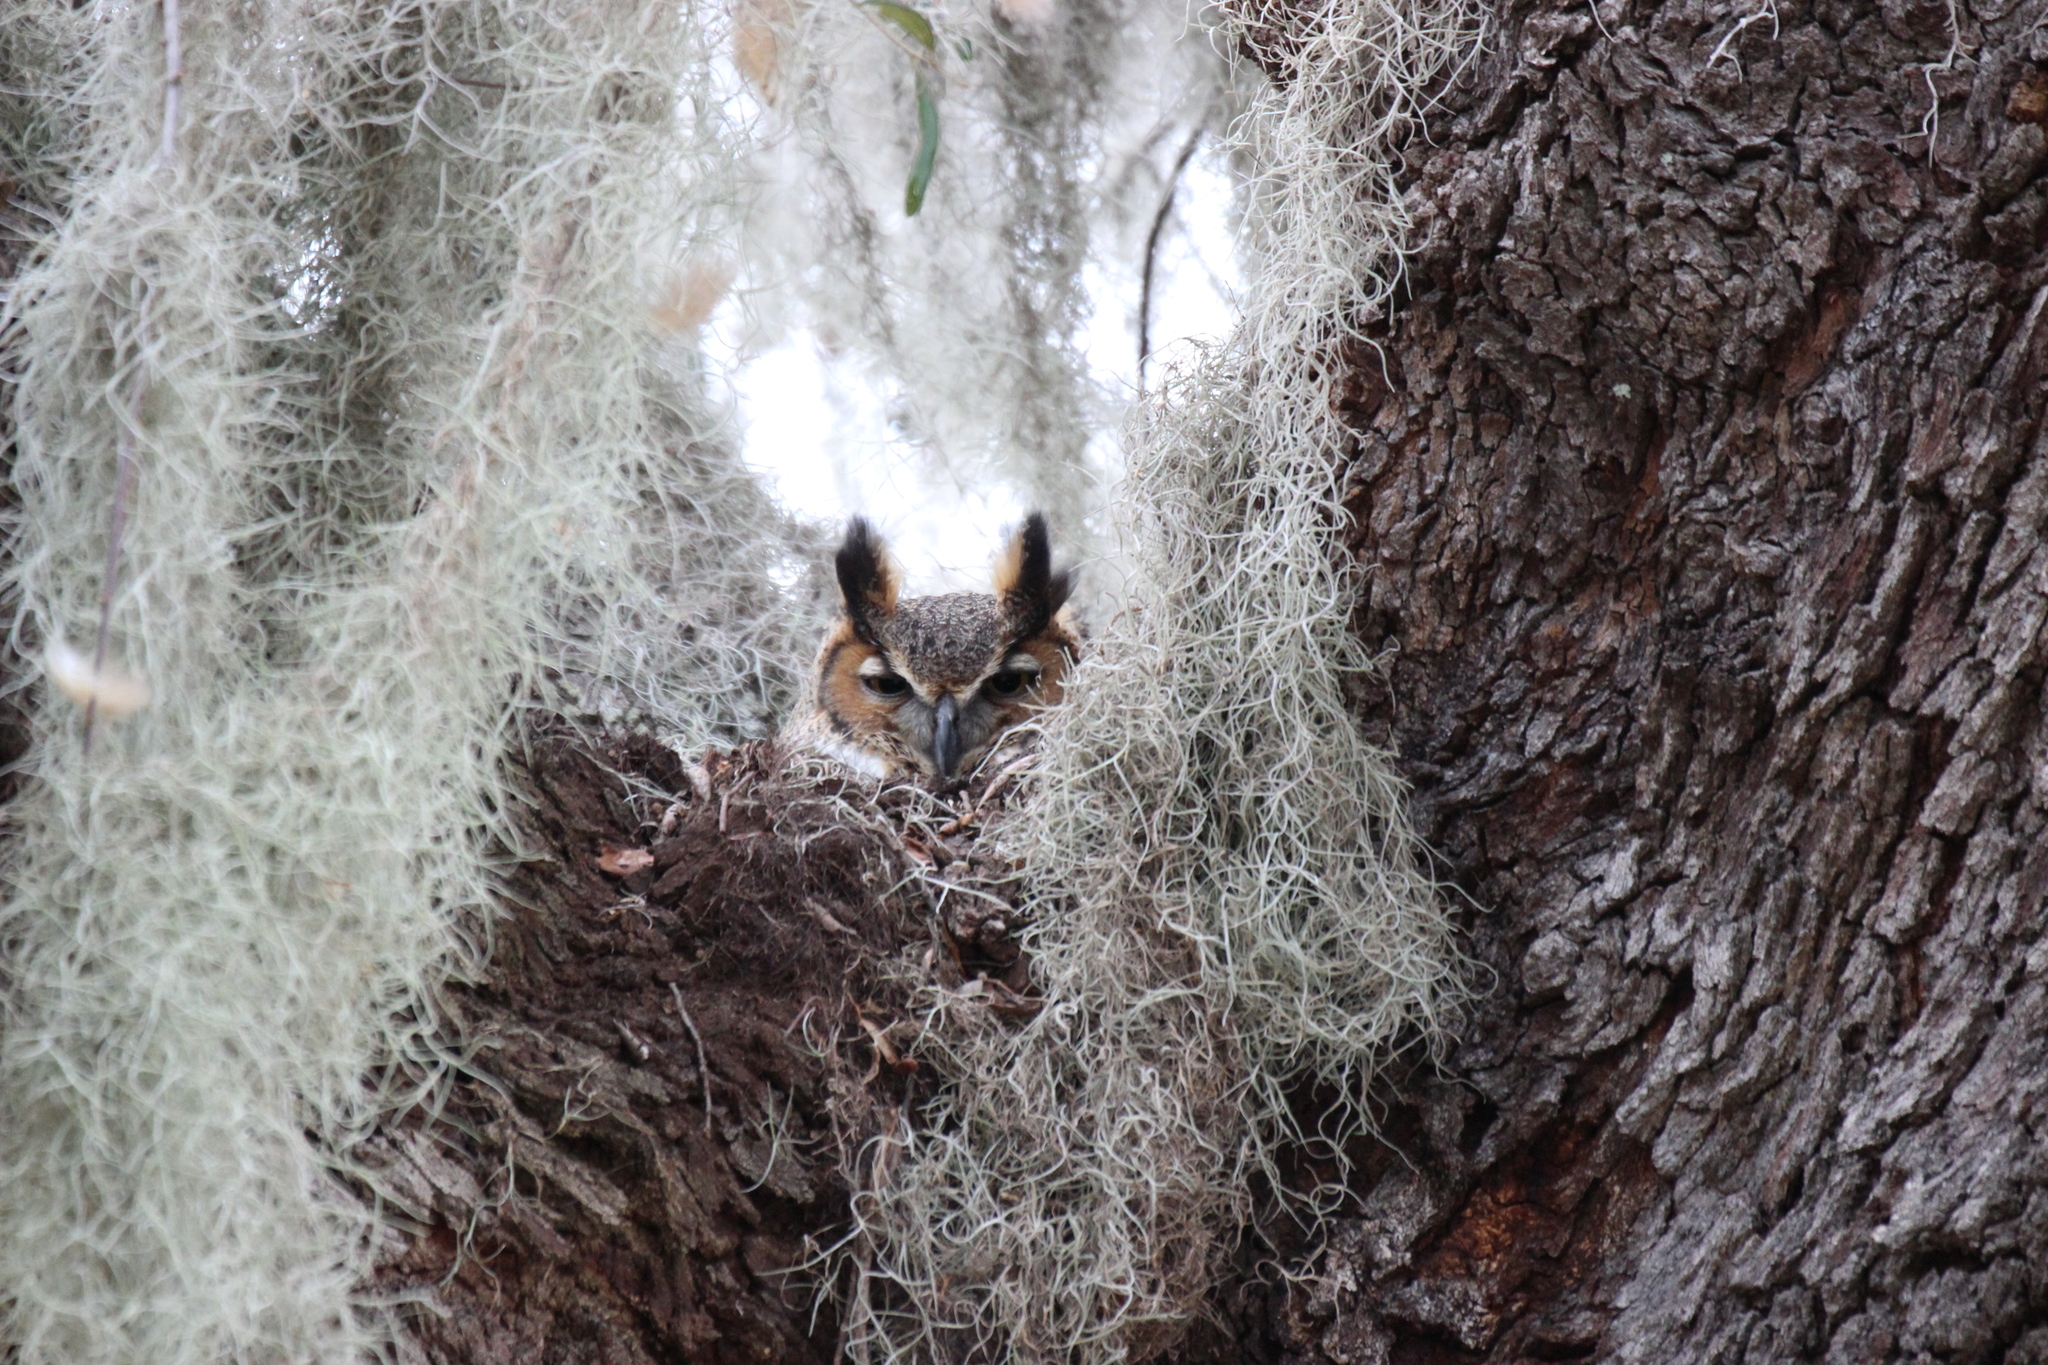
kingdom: Animalia
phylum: Chordata
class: Aves
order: Strigiformes
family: Strigidae
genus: Bubo
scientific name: Bubo virginianus
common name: Great horned owl
